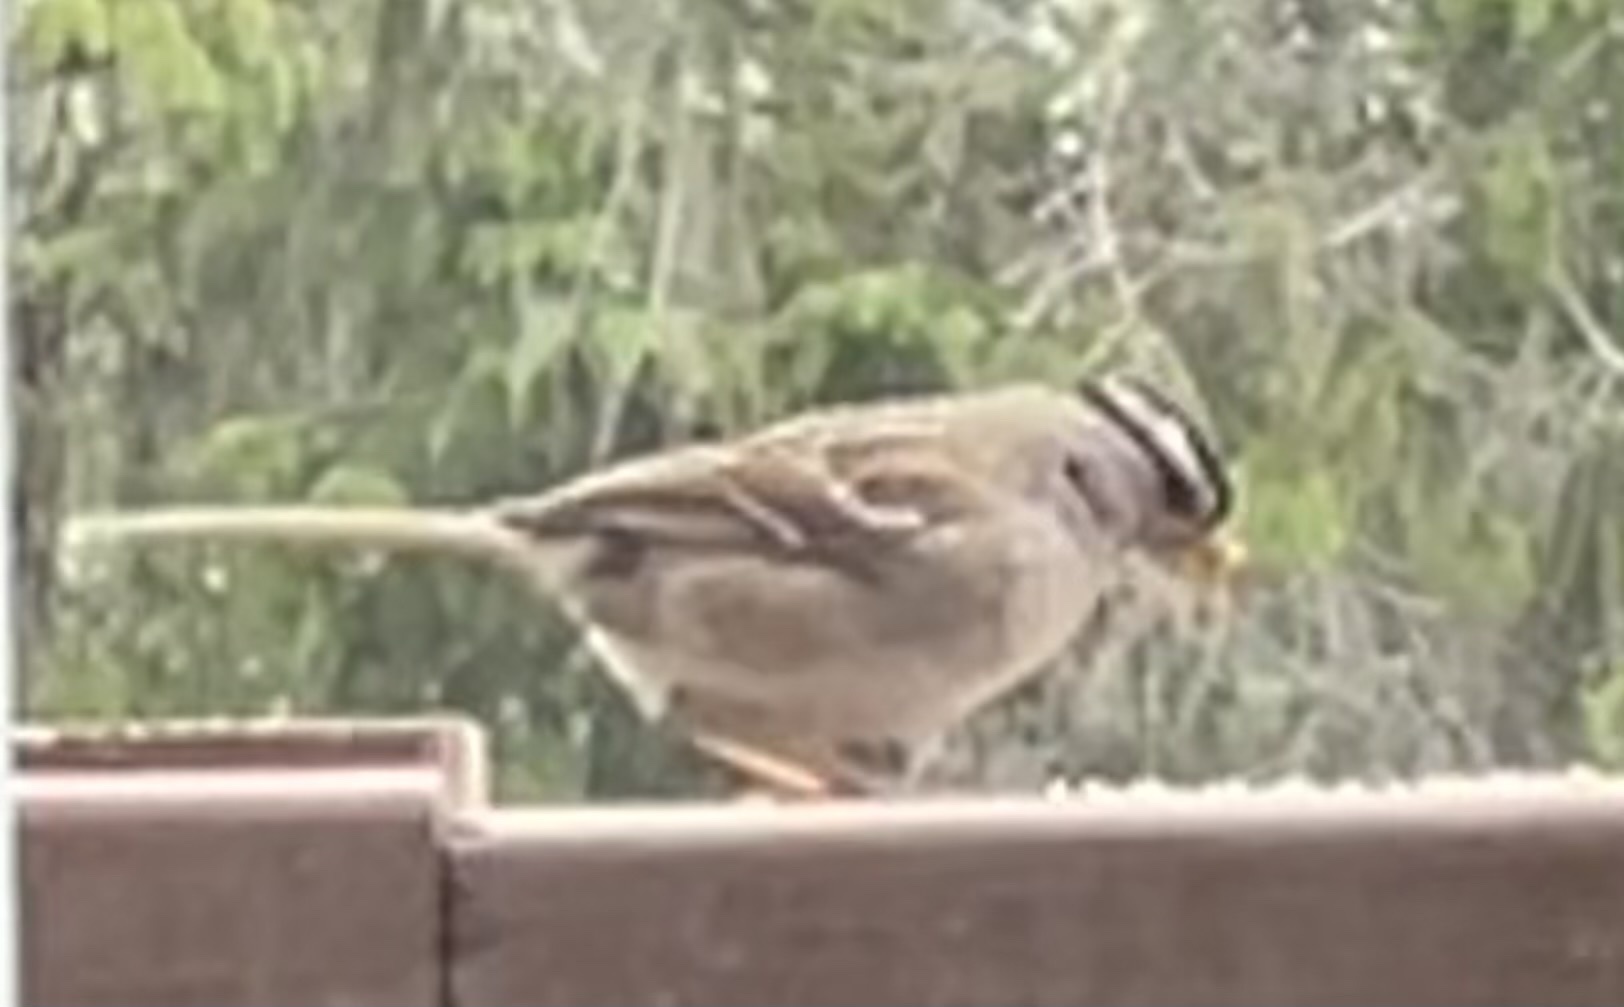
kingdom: Animalia
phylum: Chordata
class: Aves
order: Passeriformes
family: Passerellidae
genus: Zonotrichia
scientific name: Zonotrichia leucophrys
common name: White-crowned sparrow
